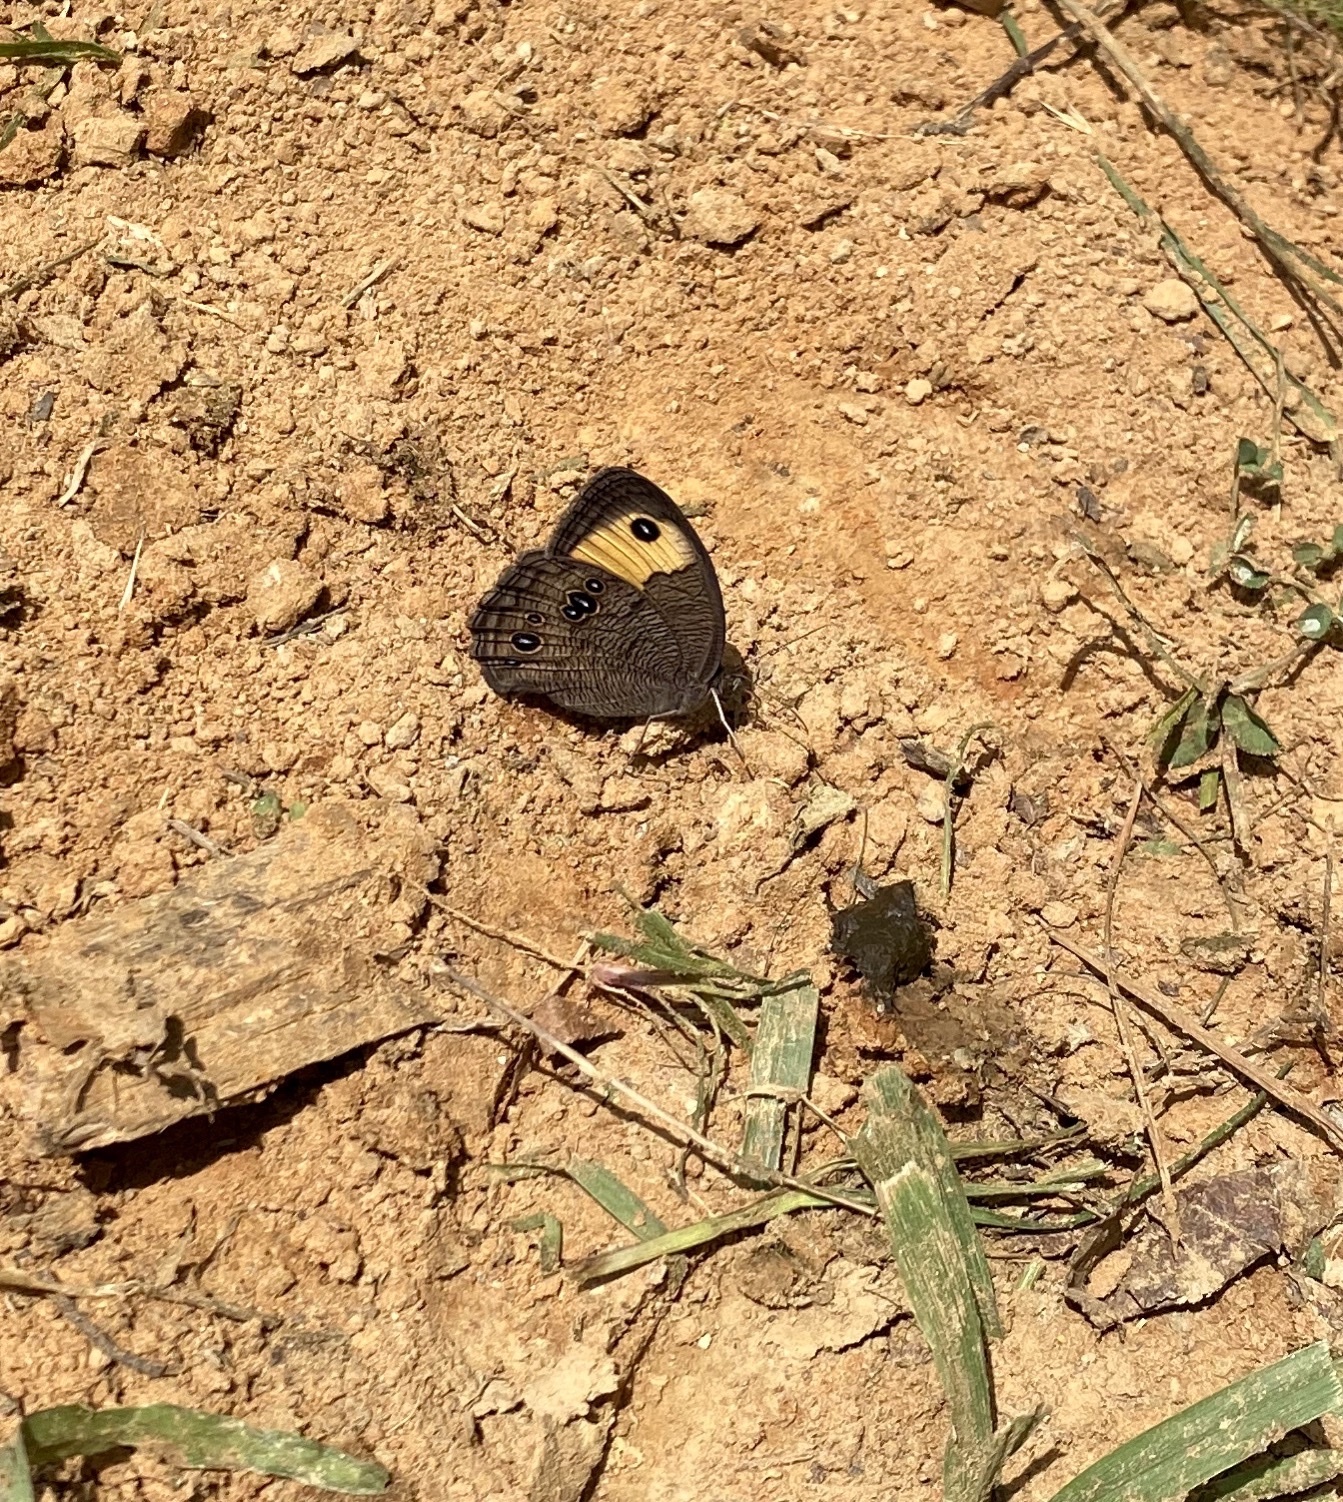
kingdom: Animalia
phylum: Arthropoda
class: Insecta
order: Lepidoptera
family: Nymphalidae
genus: Cercyonis
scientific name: Cercyonis pegala
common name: Common wood-nymph
